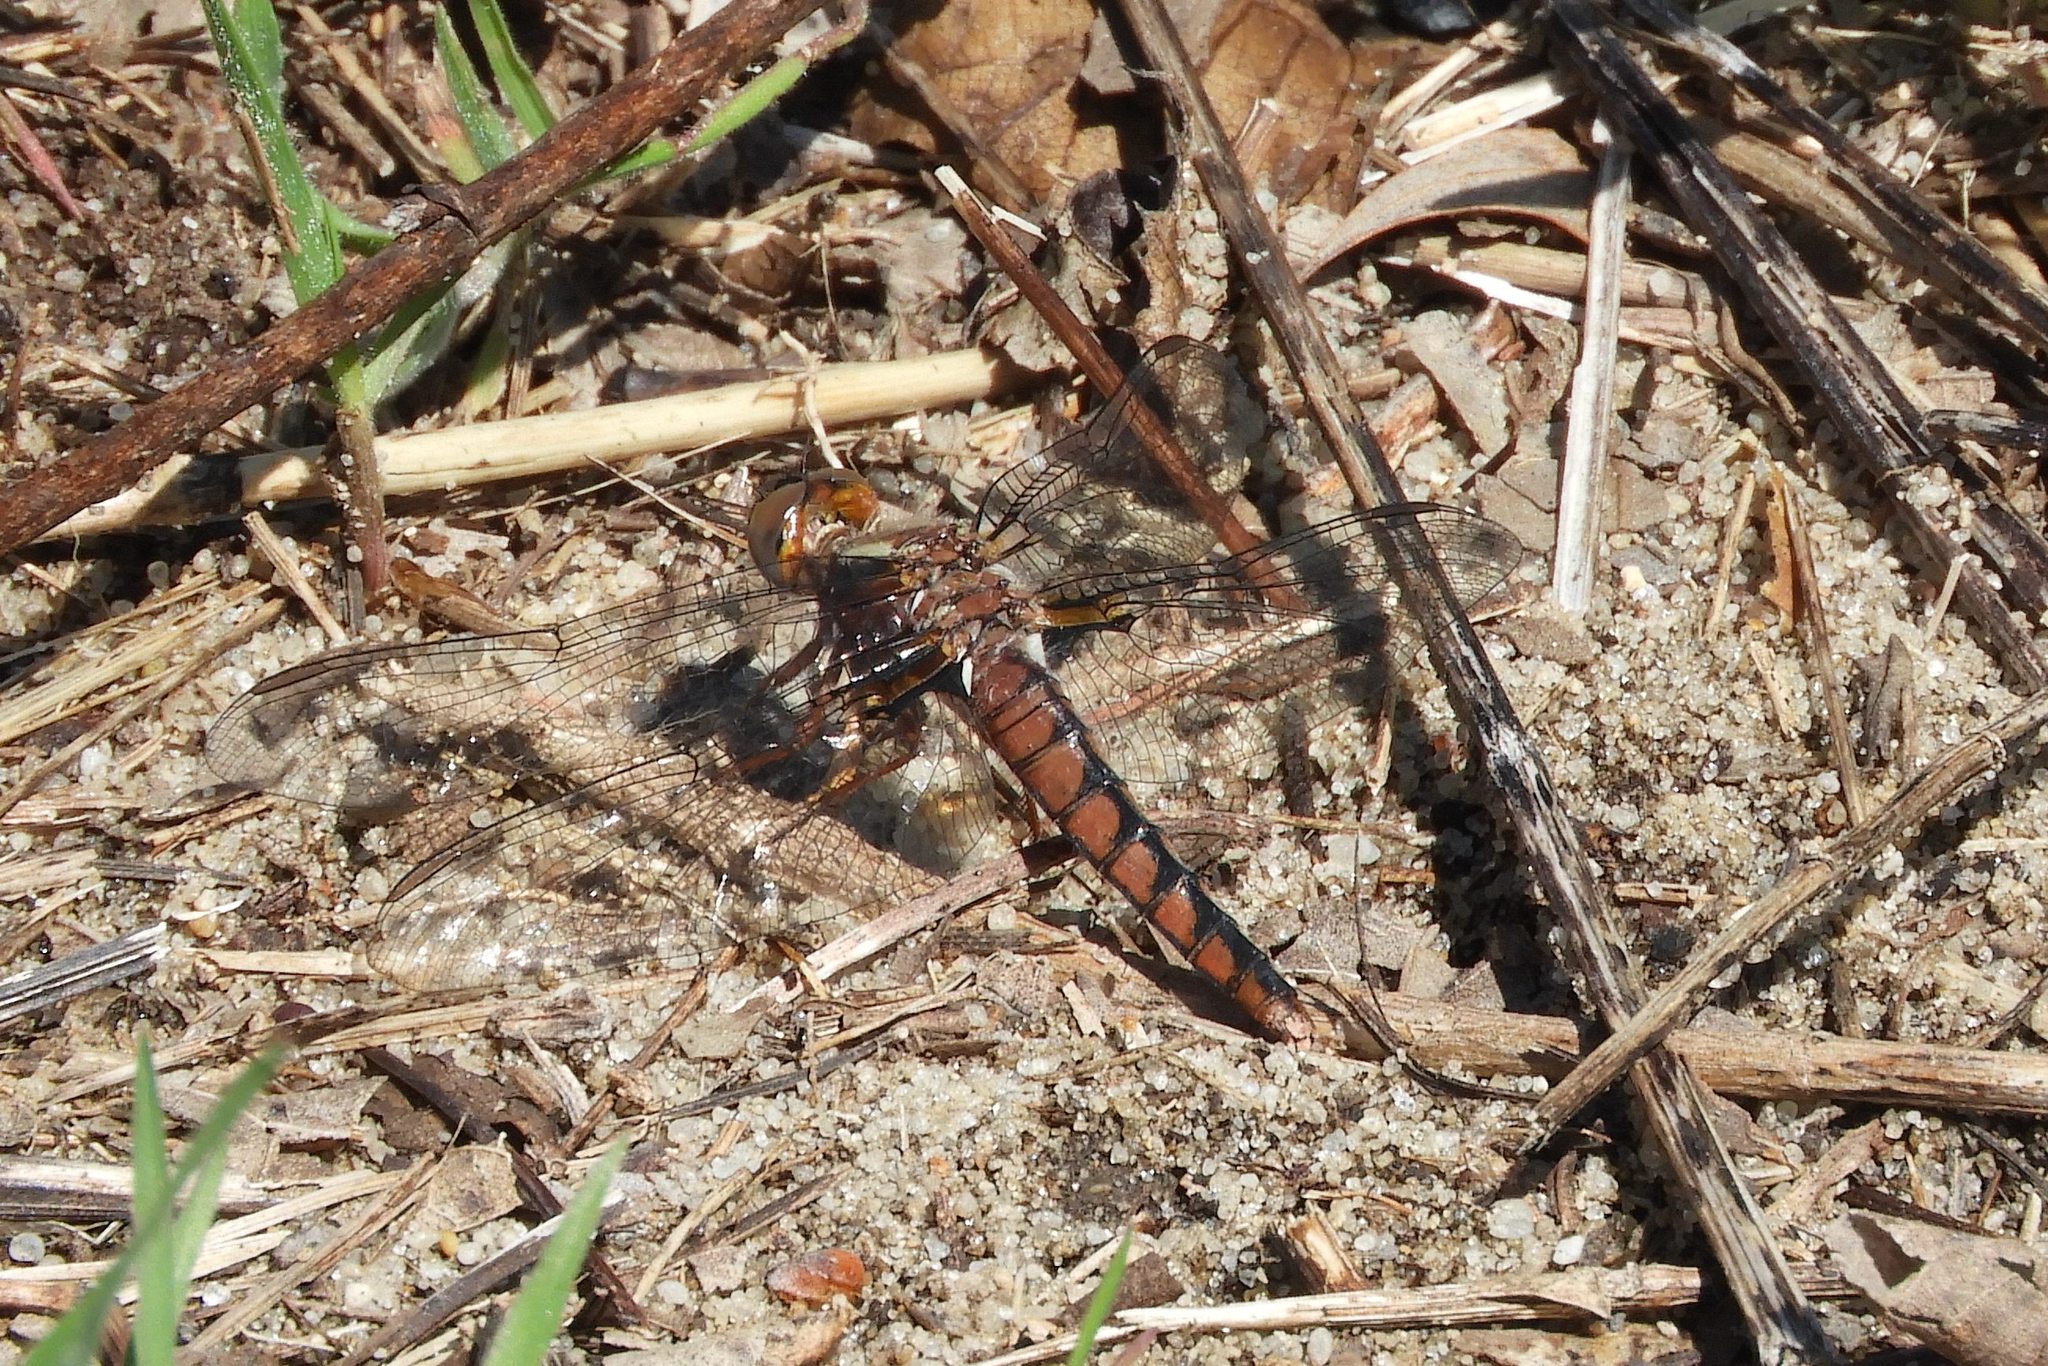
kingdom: Animalia
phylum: Arthropoda
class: Insecta
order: Odonata
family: Libellulidae
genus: Ladona
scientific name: Ladona deplanata
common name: Blue corporal
